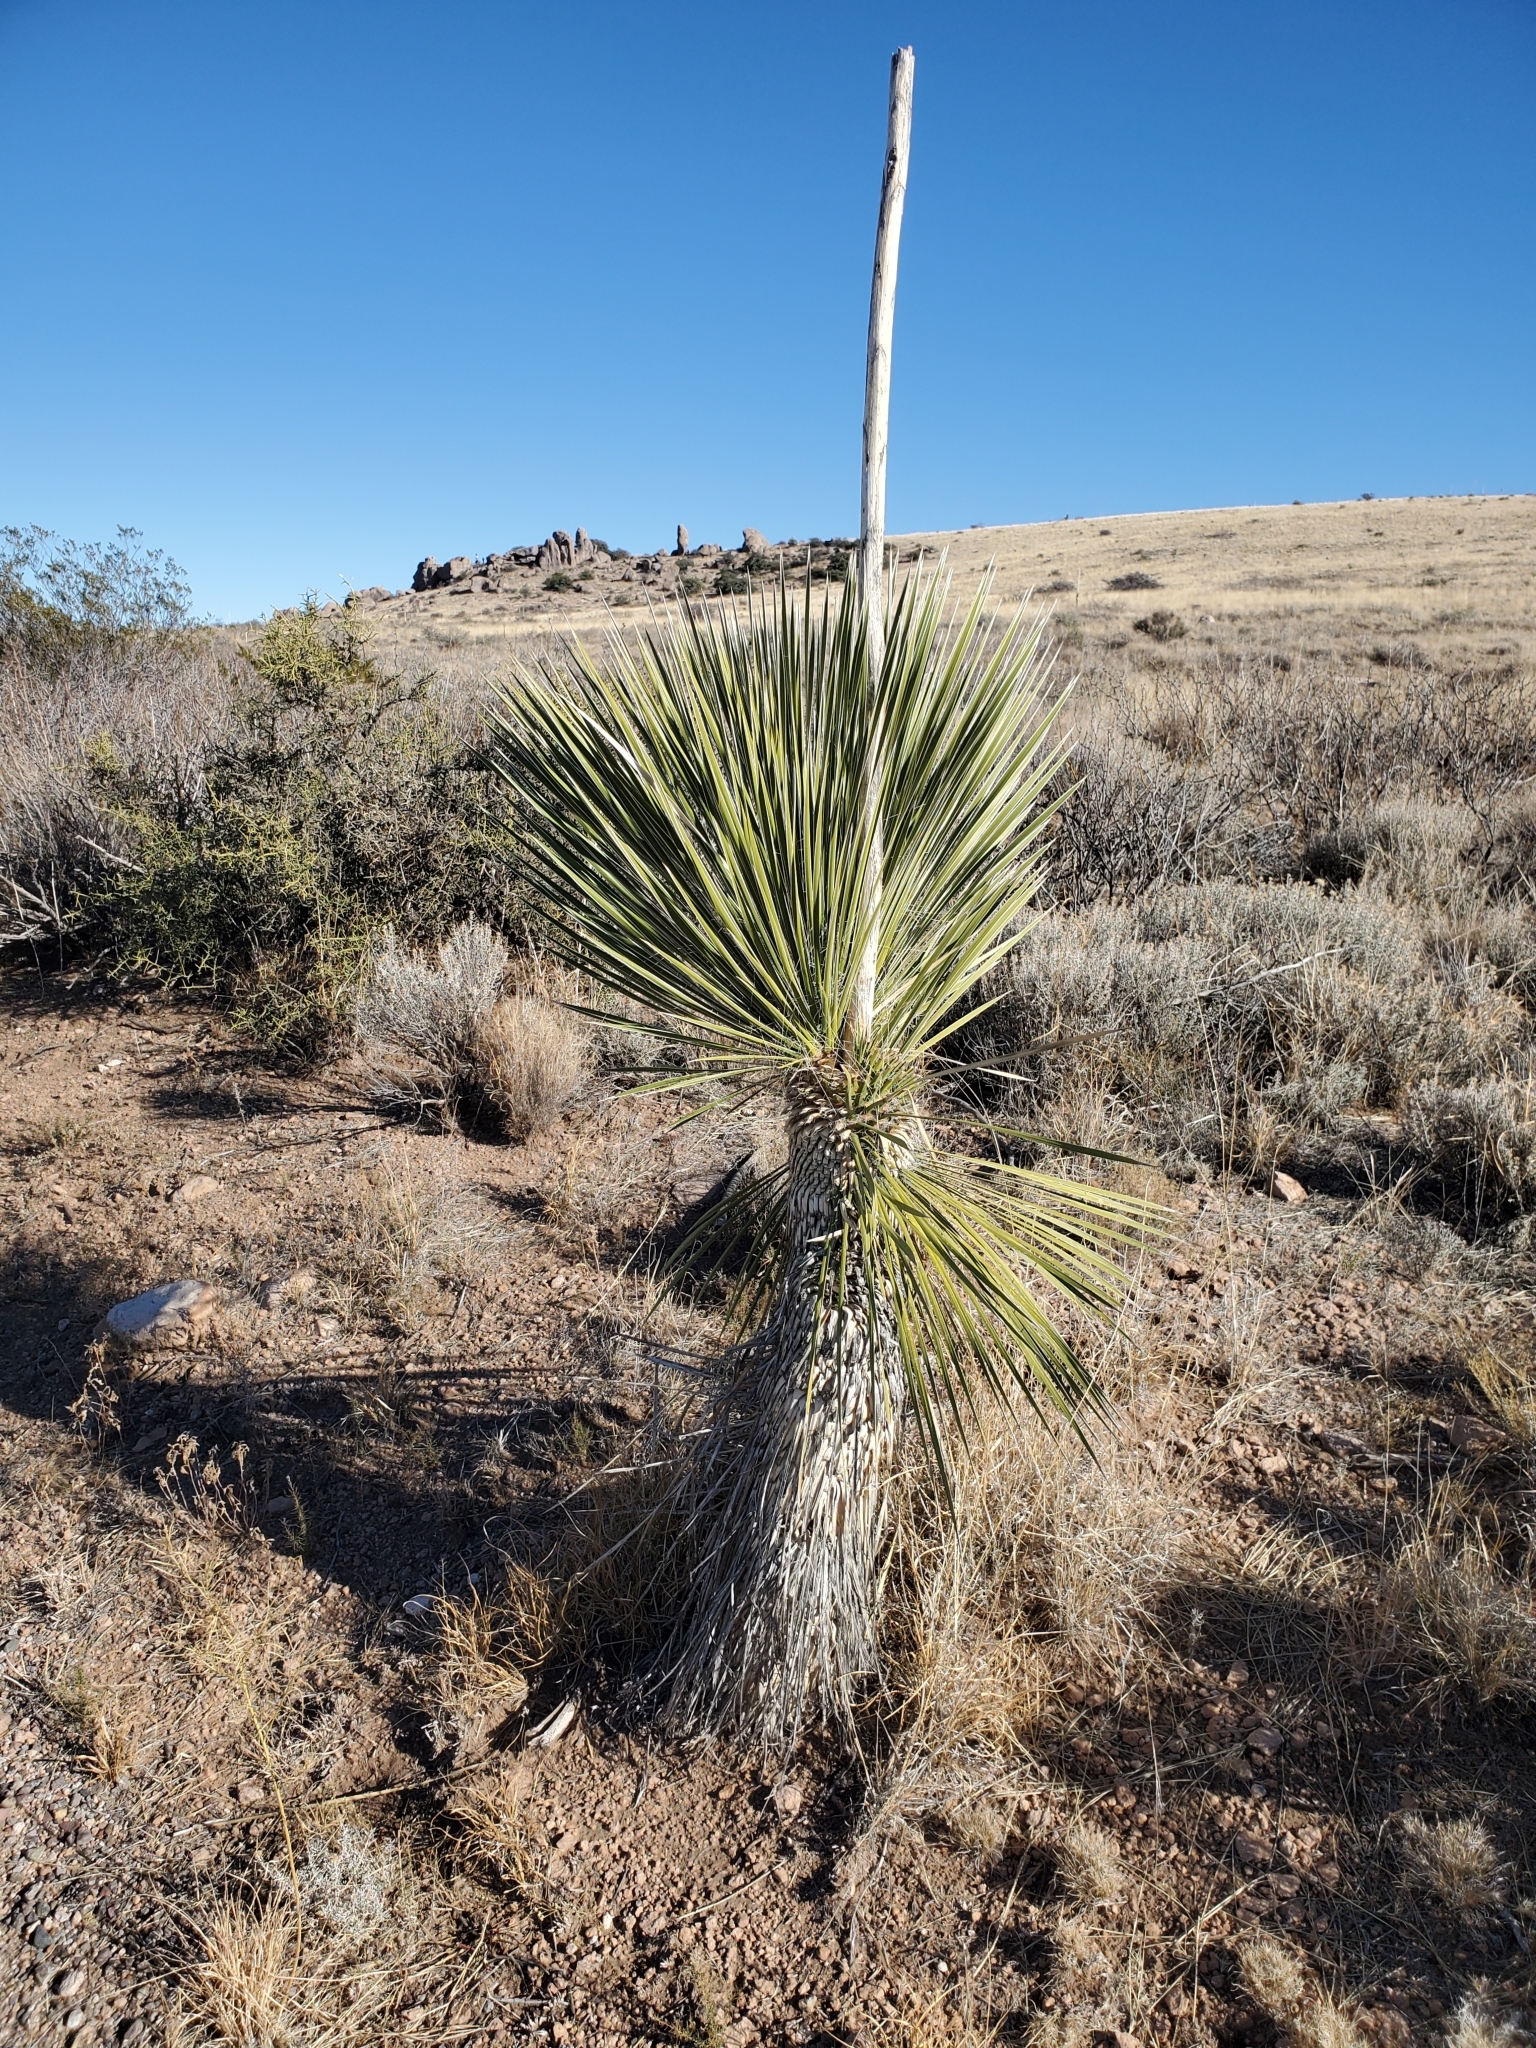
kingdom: Plantae
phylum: Tracheophyta
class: Liliopsida
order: Asparagales
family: Asparagaceae
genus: Yucca
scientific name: Yucca elata
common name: Palmella
